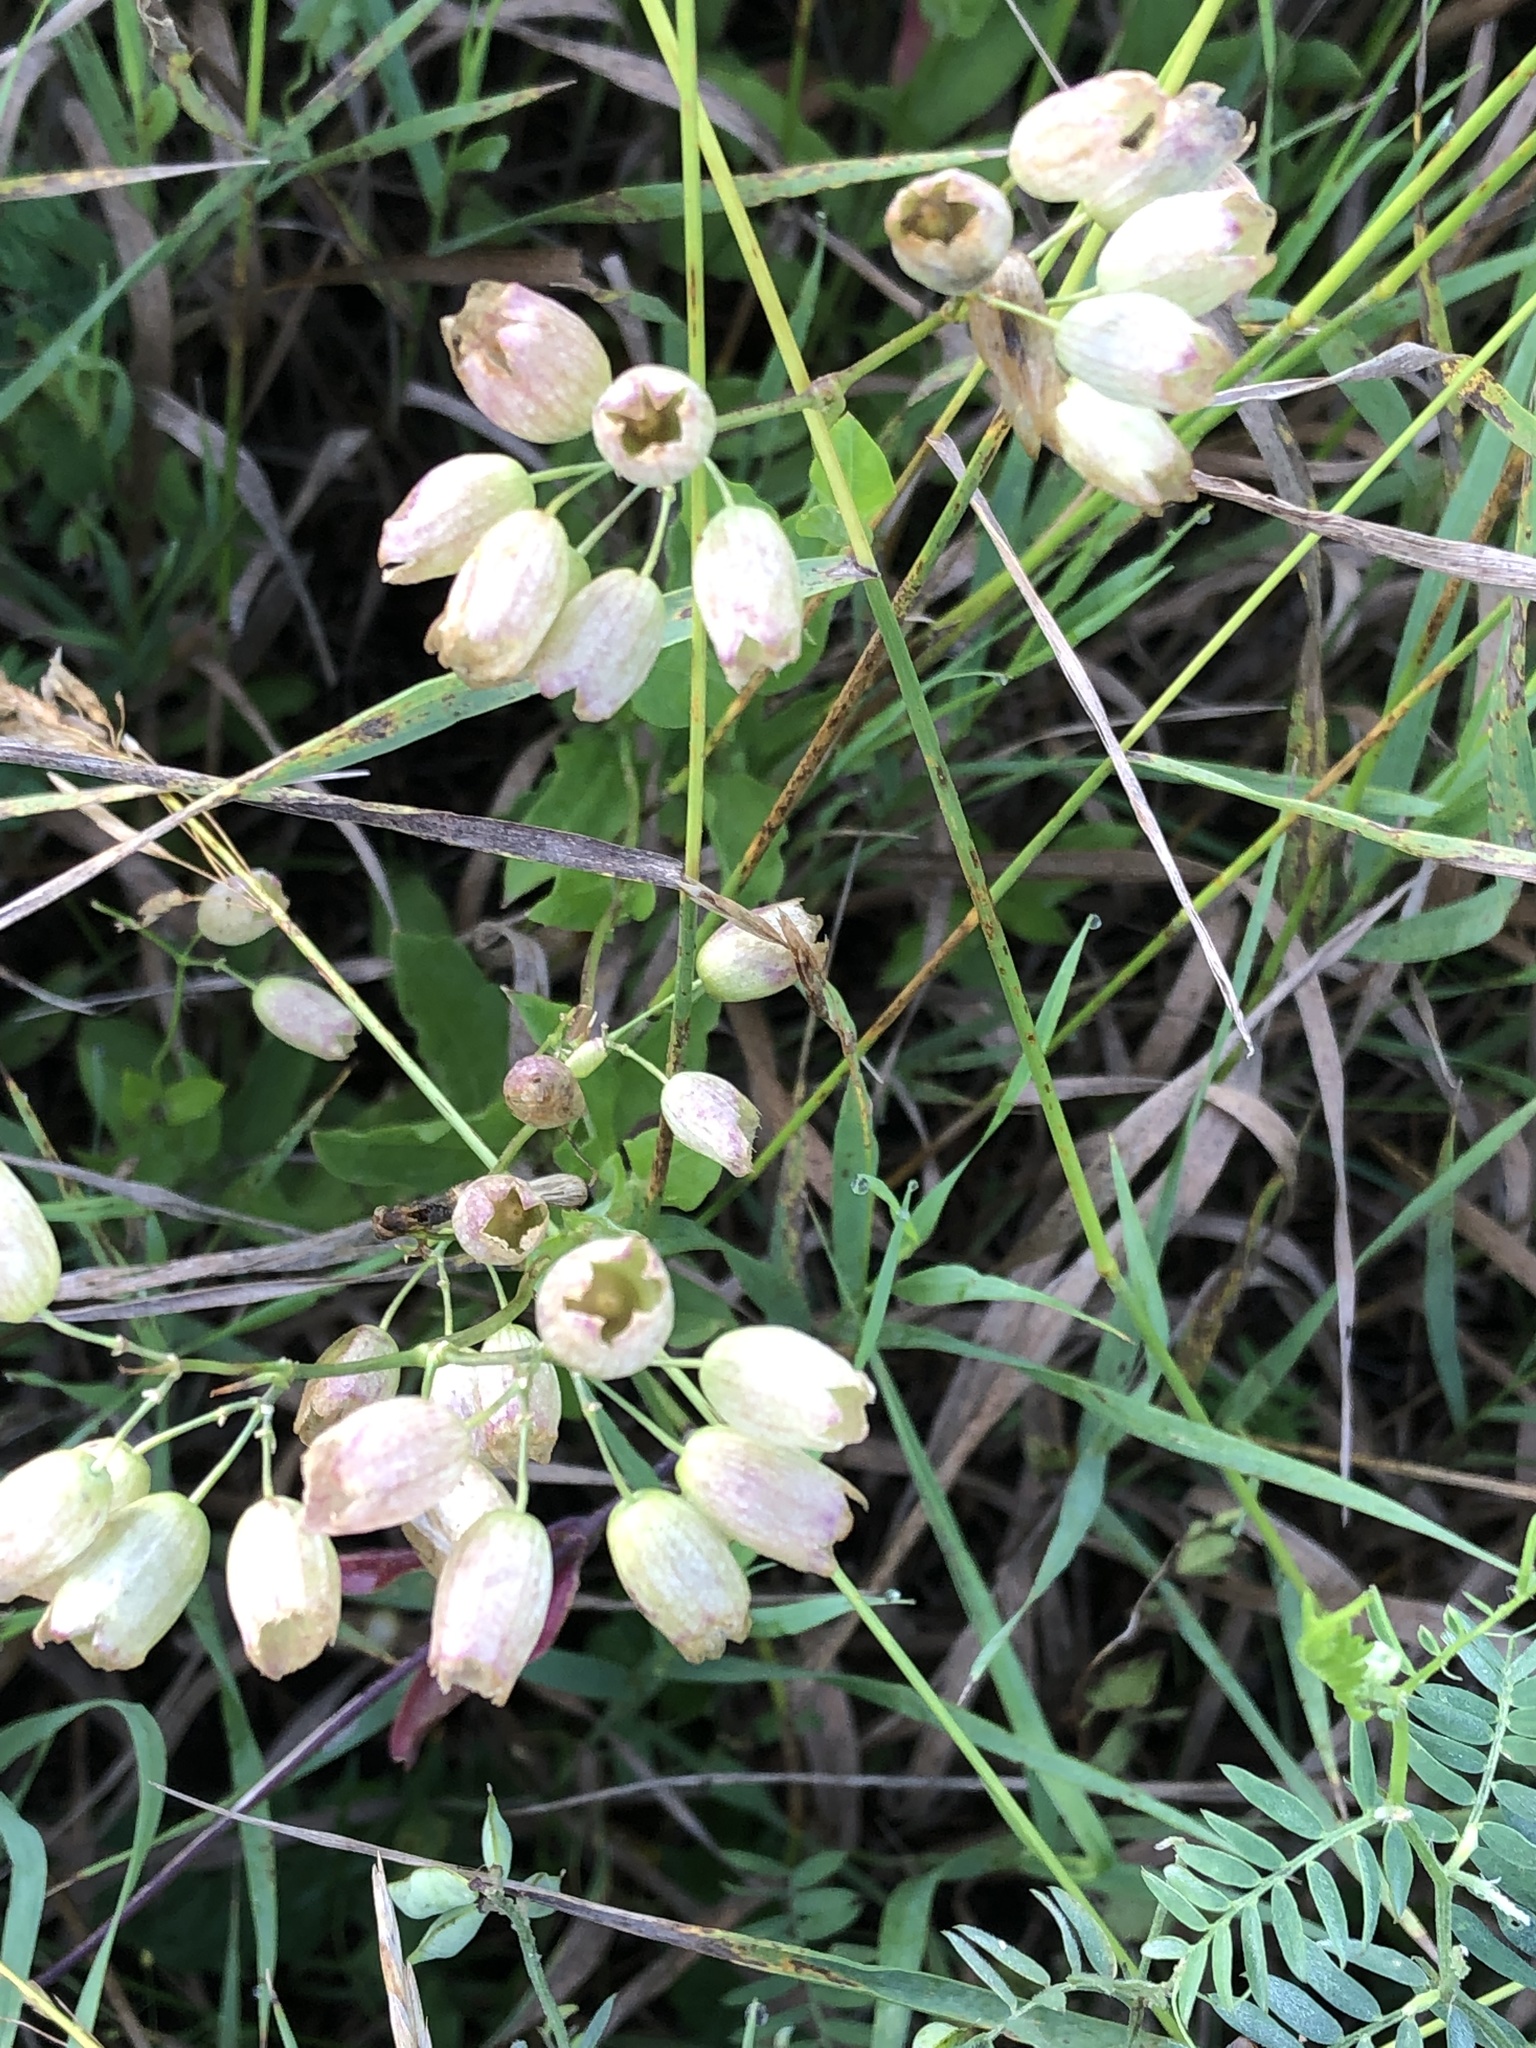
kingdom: Plantae
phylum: Tracheophyta
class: Magnoliopsida
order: Caryophyllales
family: Caryophyllaceae
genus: Silene
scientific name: Silene vulgaris
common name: Bladder campion
